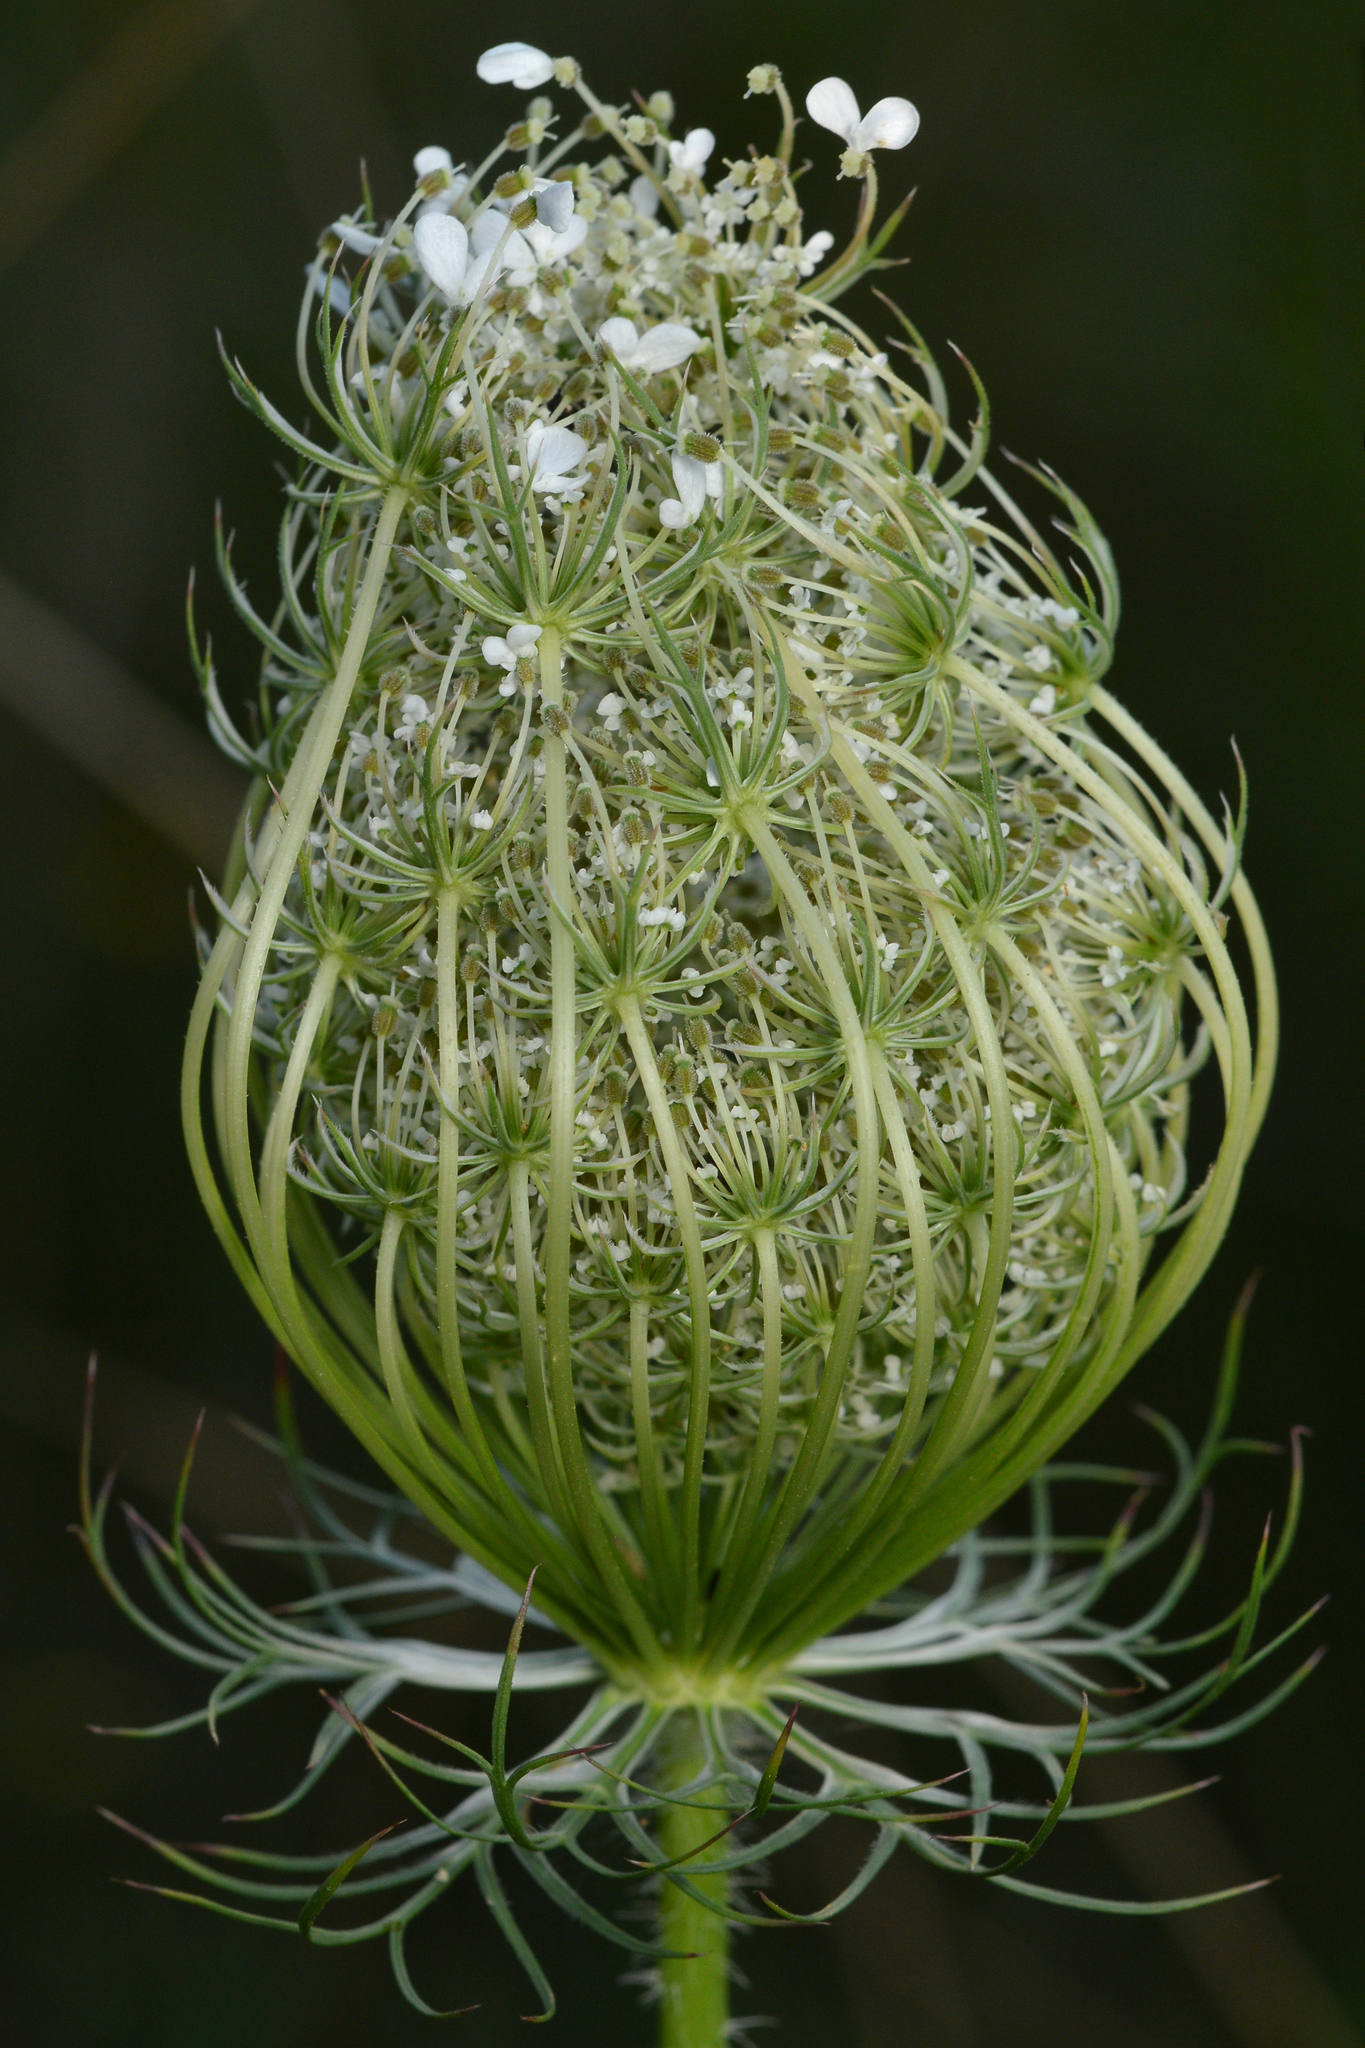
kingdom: Plantae
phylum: Tracheophyta
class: Magnoliopsida
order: Apiales
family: Apiaceae
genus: Daucus
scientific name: Daucus carota
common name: Wild carrot
